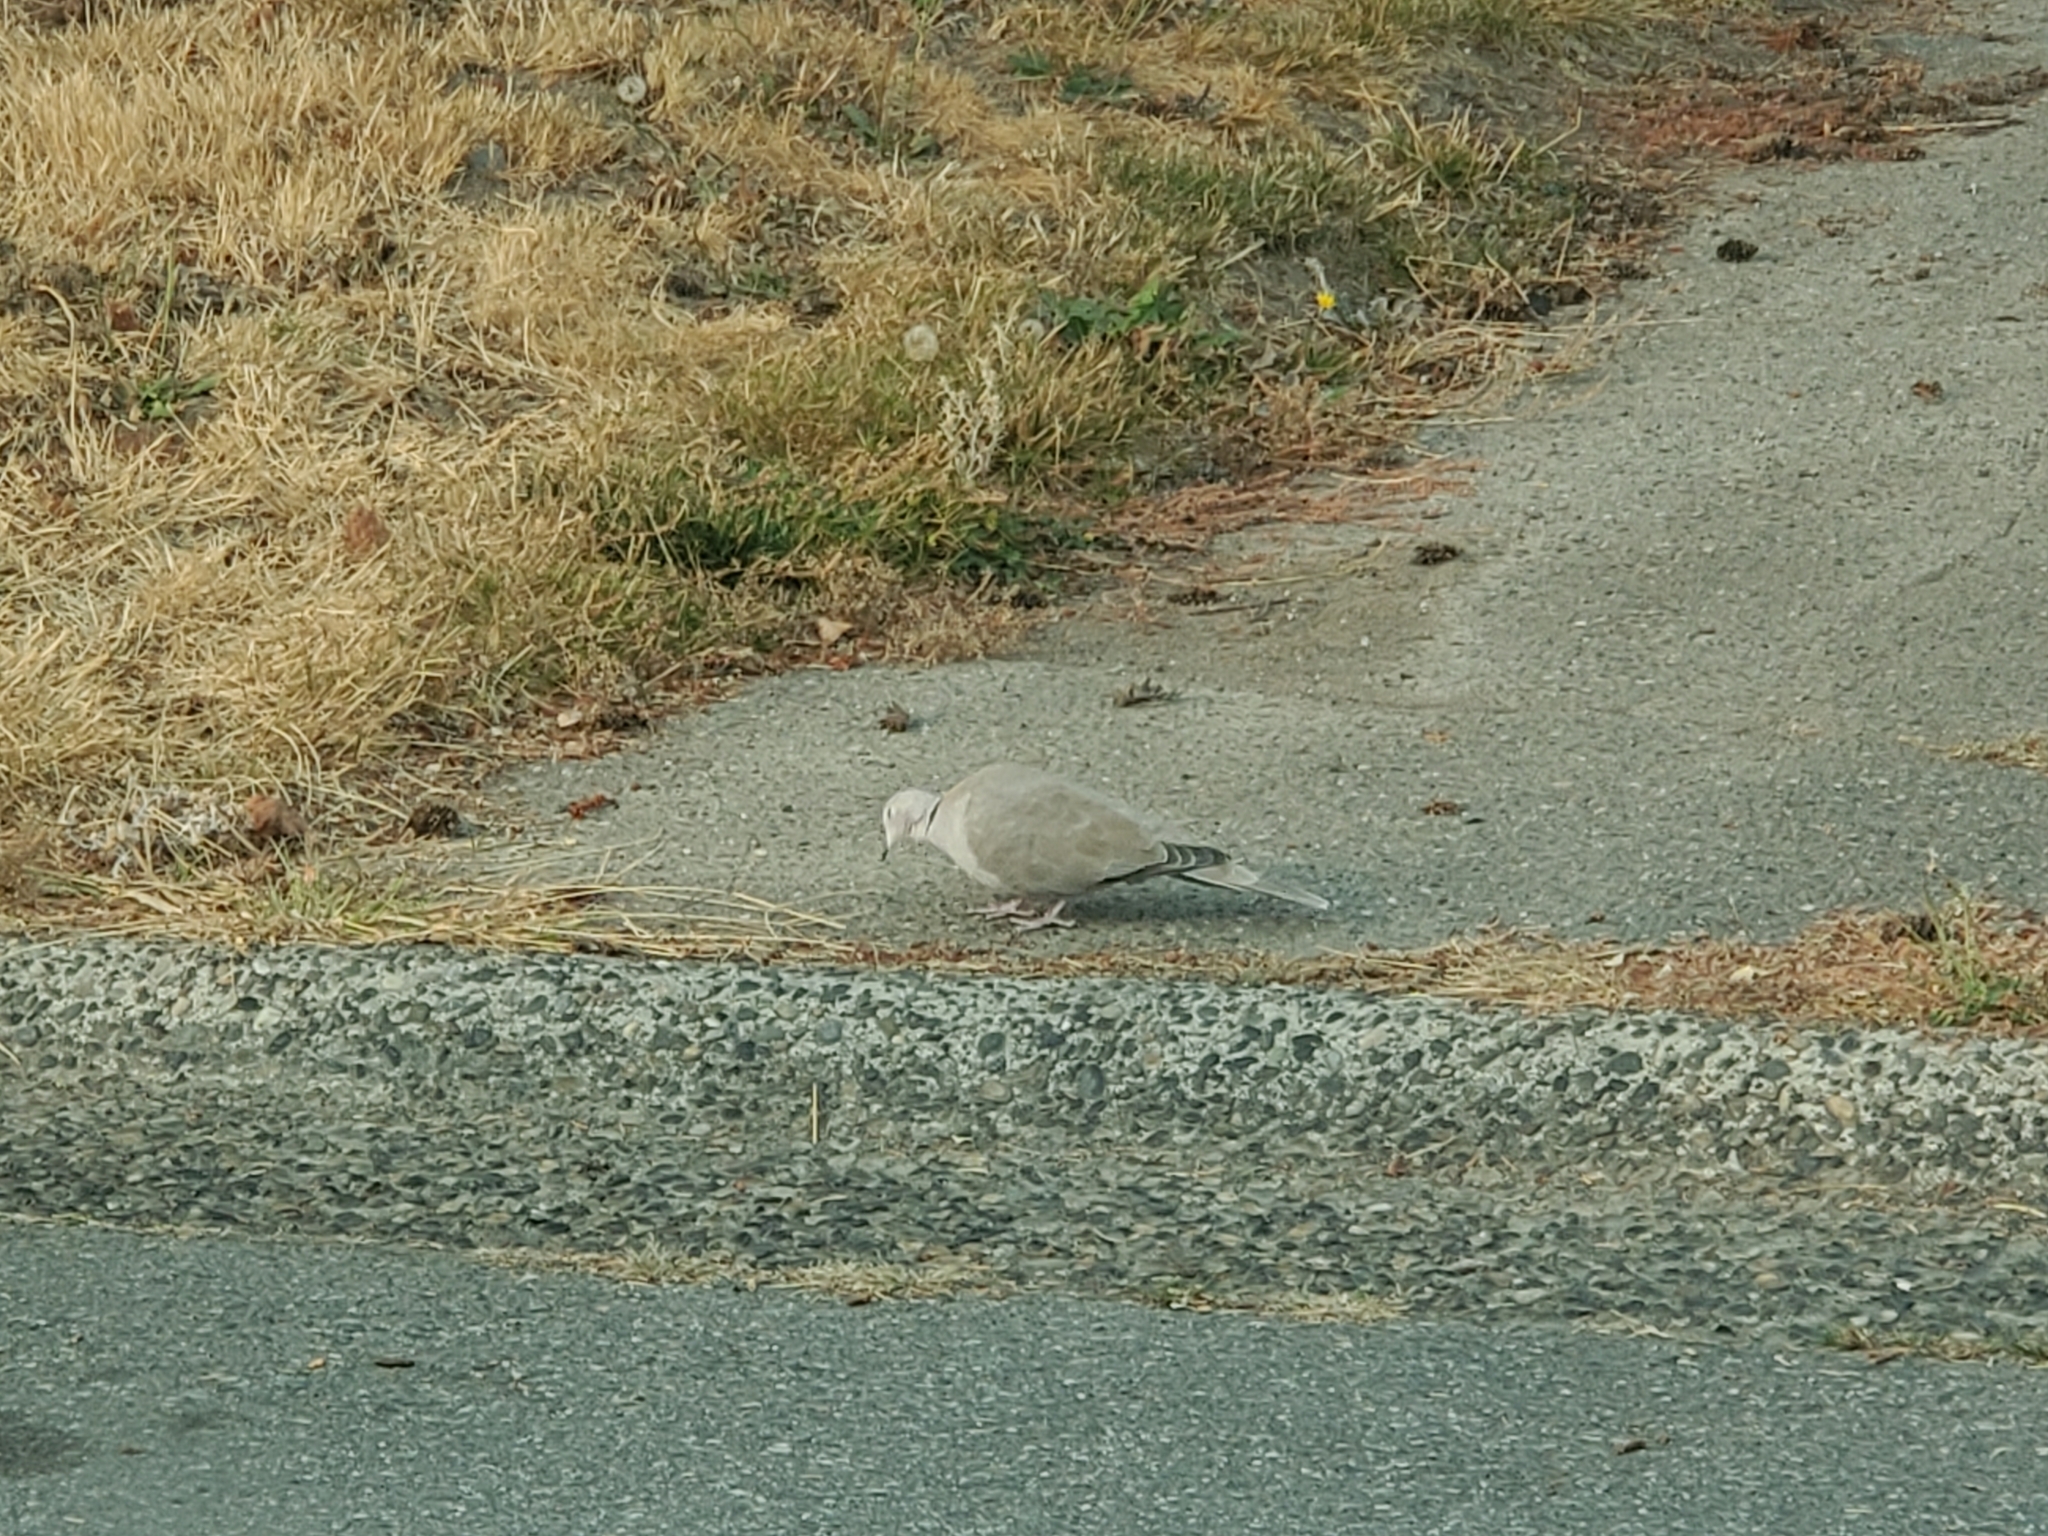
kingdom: Animalia
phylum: Chordata
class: Aves
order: Columbiformes
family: Columbidae
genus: Streptopelia
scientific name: Streptopelia decaocto
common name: Eurasian collared dove
